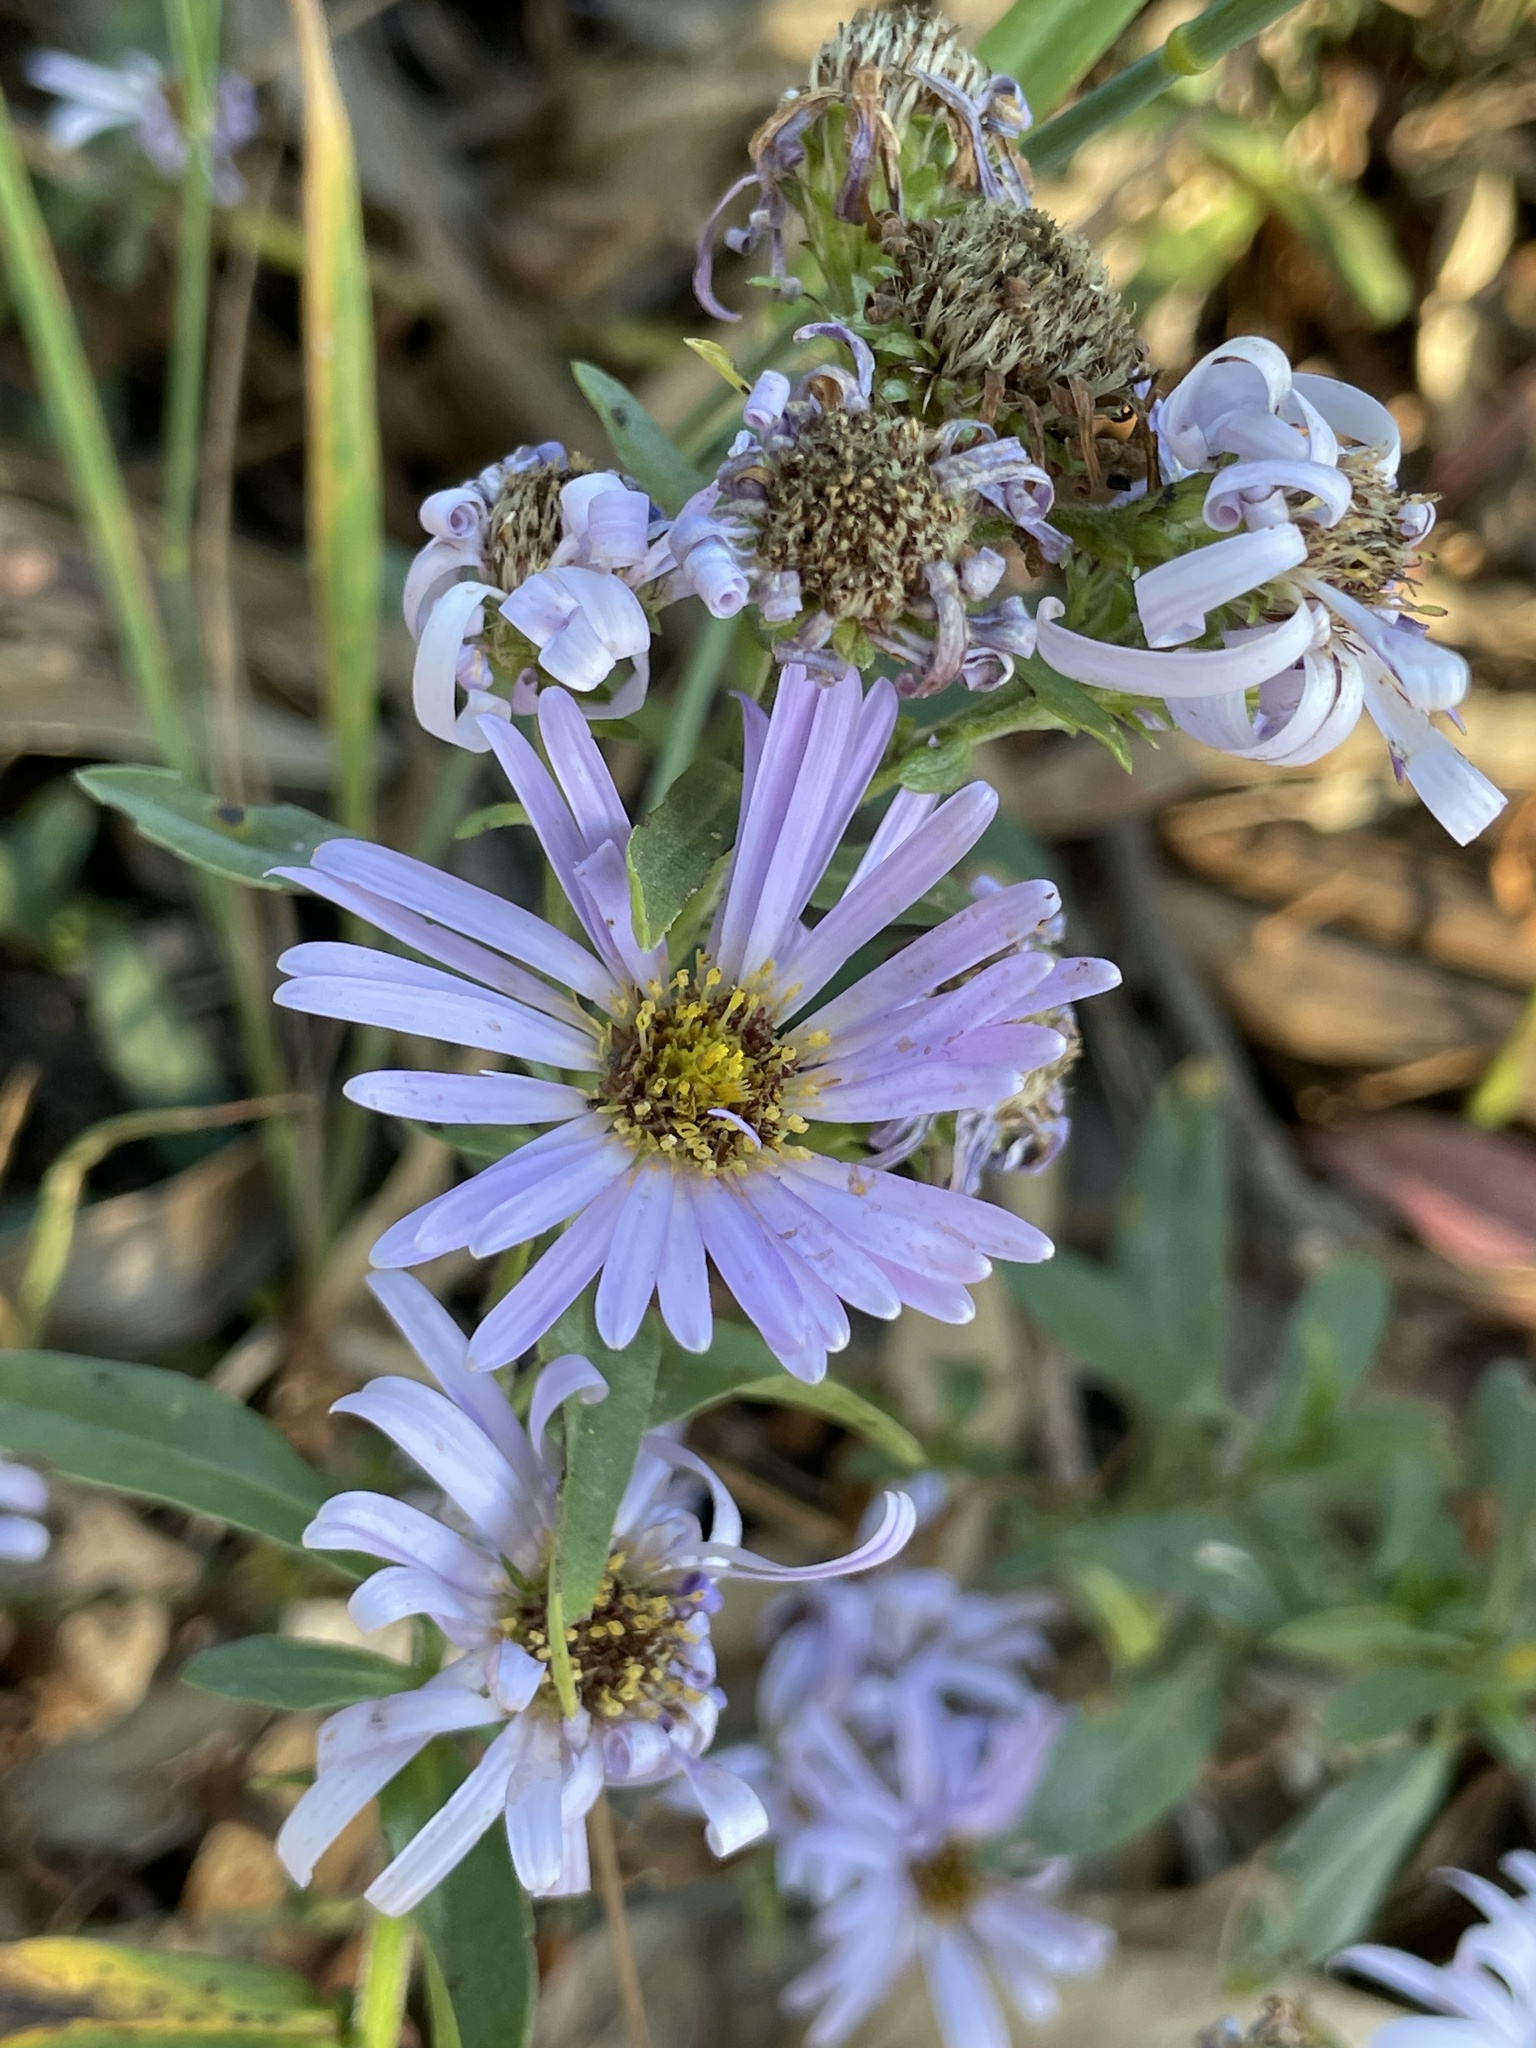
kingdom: Plantae
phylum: Tracheophyta
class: Magnoliopsida
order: Asterales
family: Asteraceae
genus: Symphyotrichum
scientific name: Symphyotrichum chilense
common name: Pacific aster
